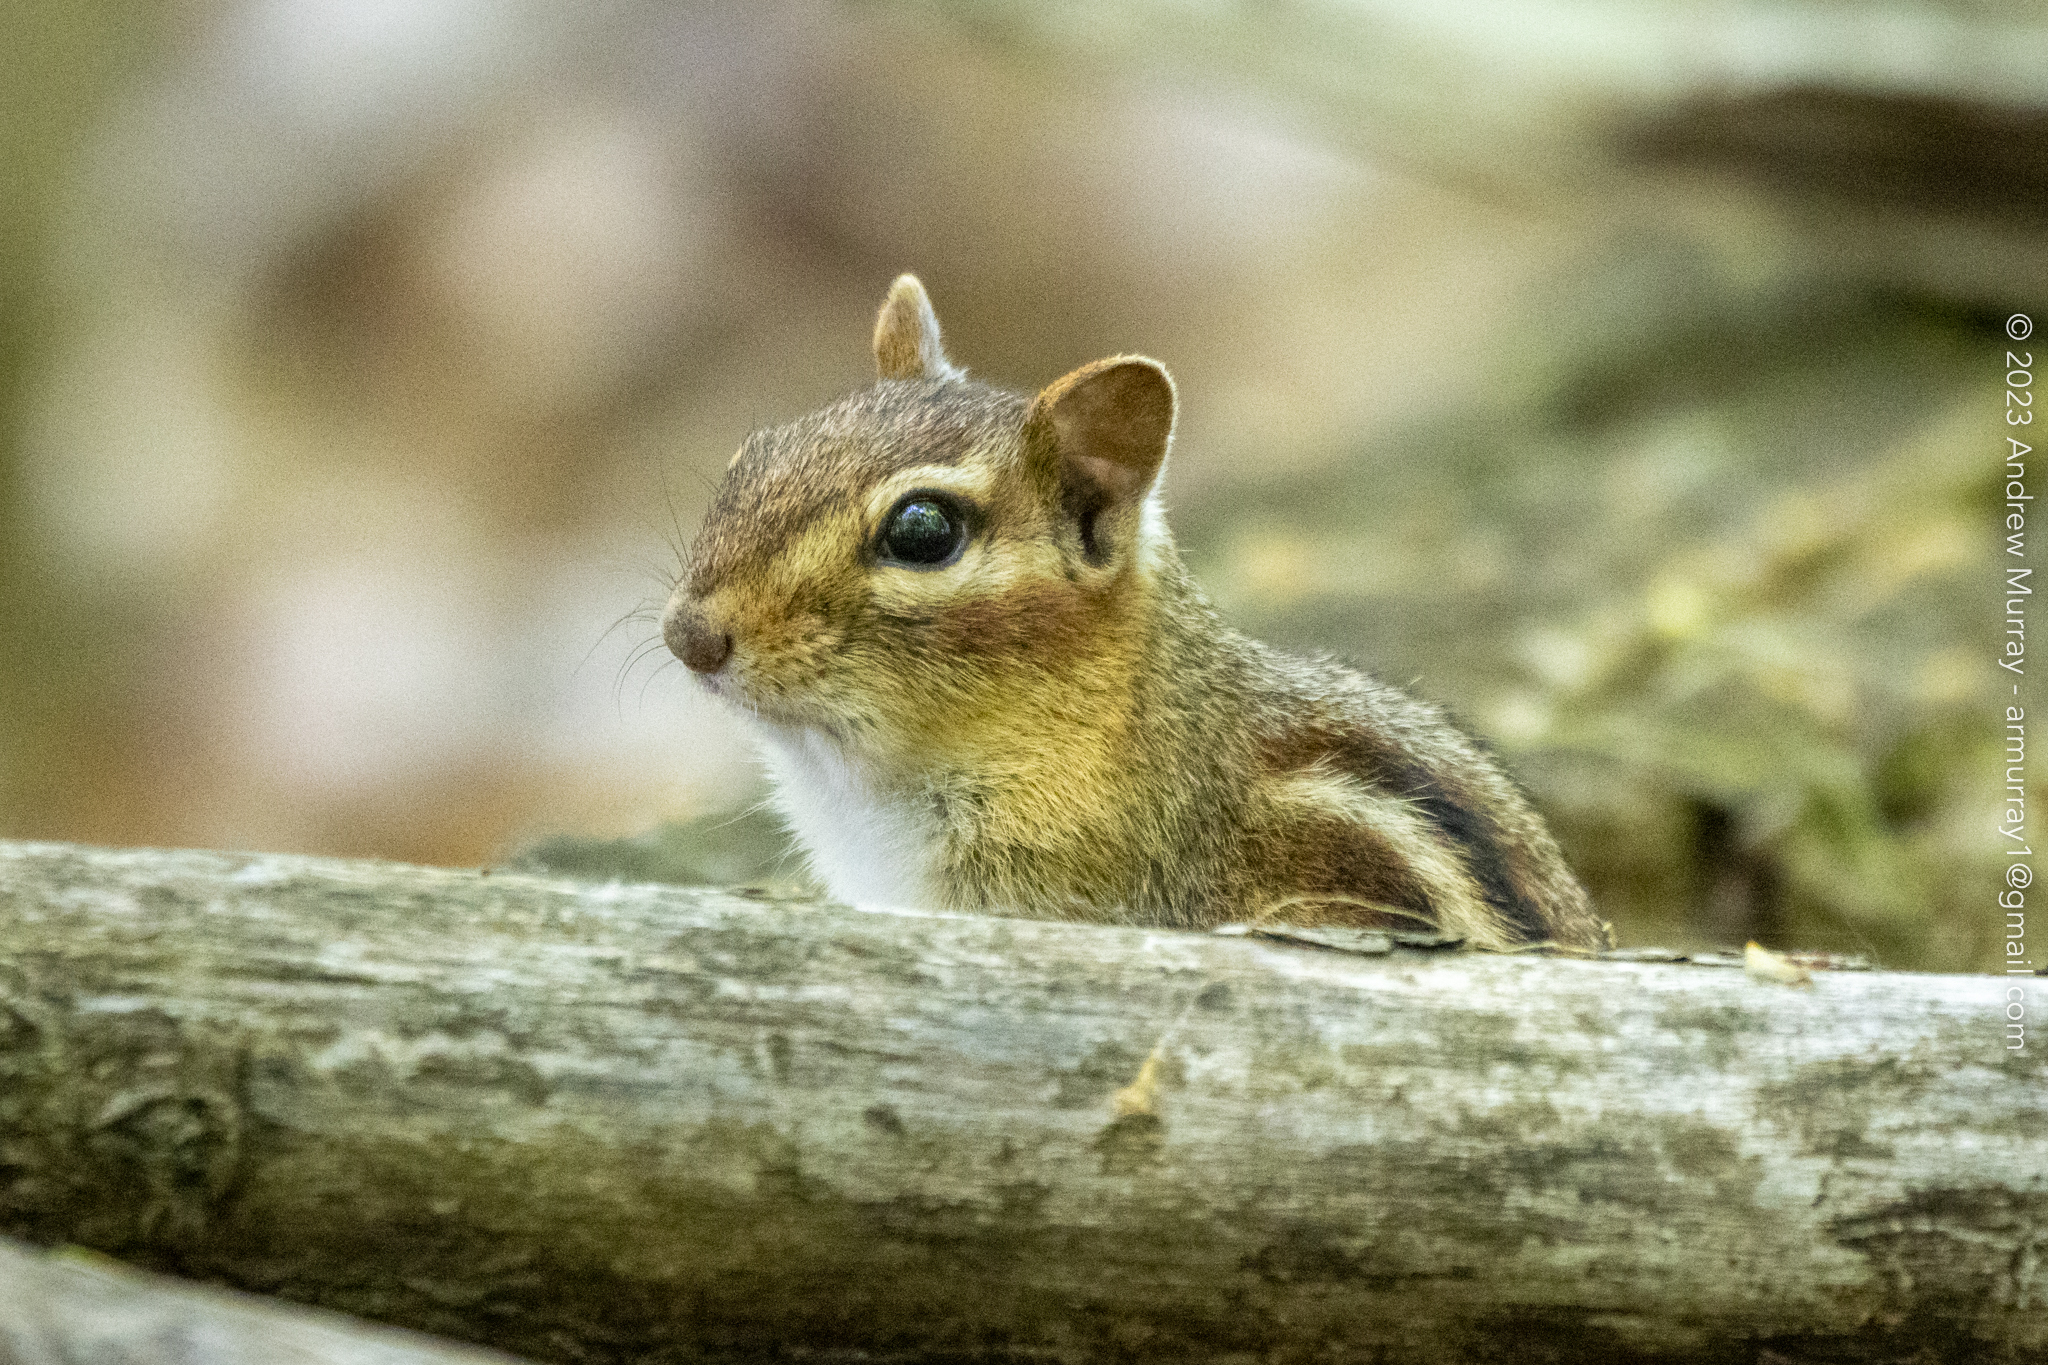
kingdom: Animalia
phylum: Chordata
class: Mammalia
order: Rodentia
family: Sciuridae
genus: Tamias
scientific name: Tamias striatus
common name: Eastern chipmunk
